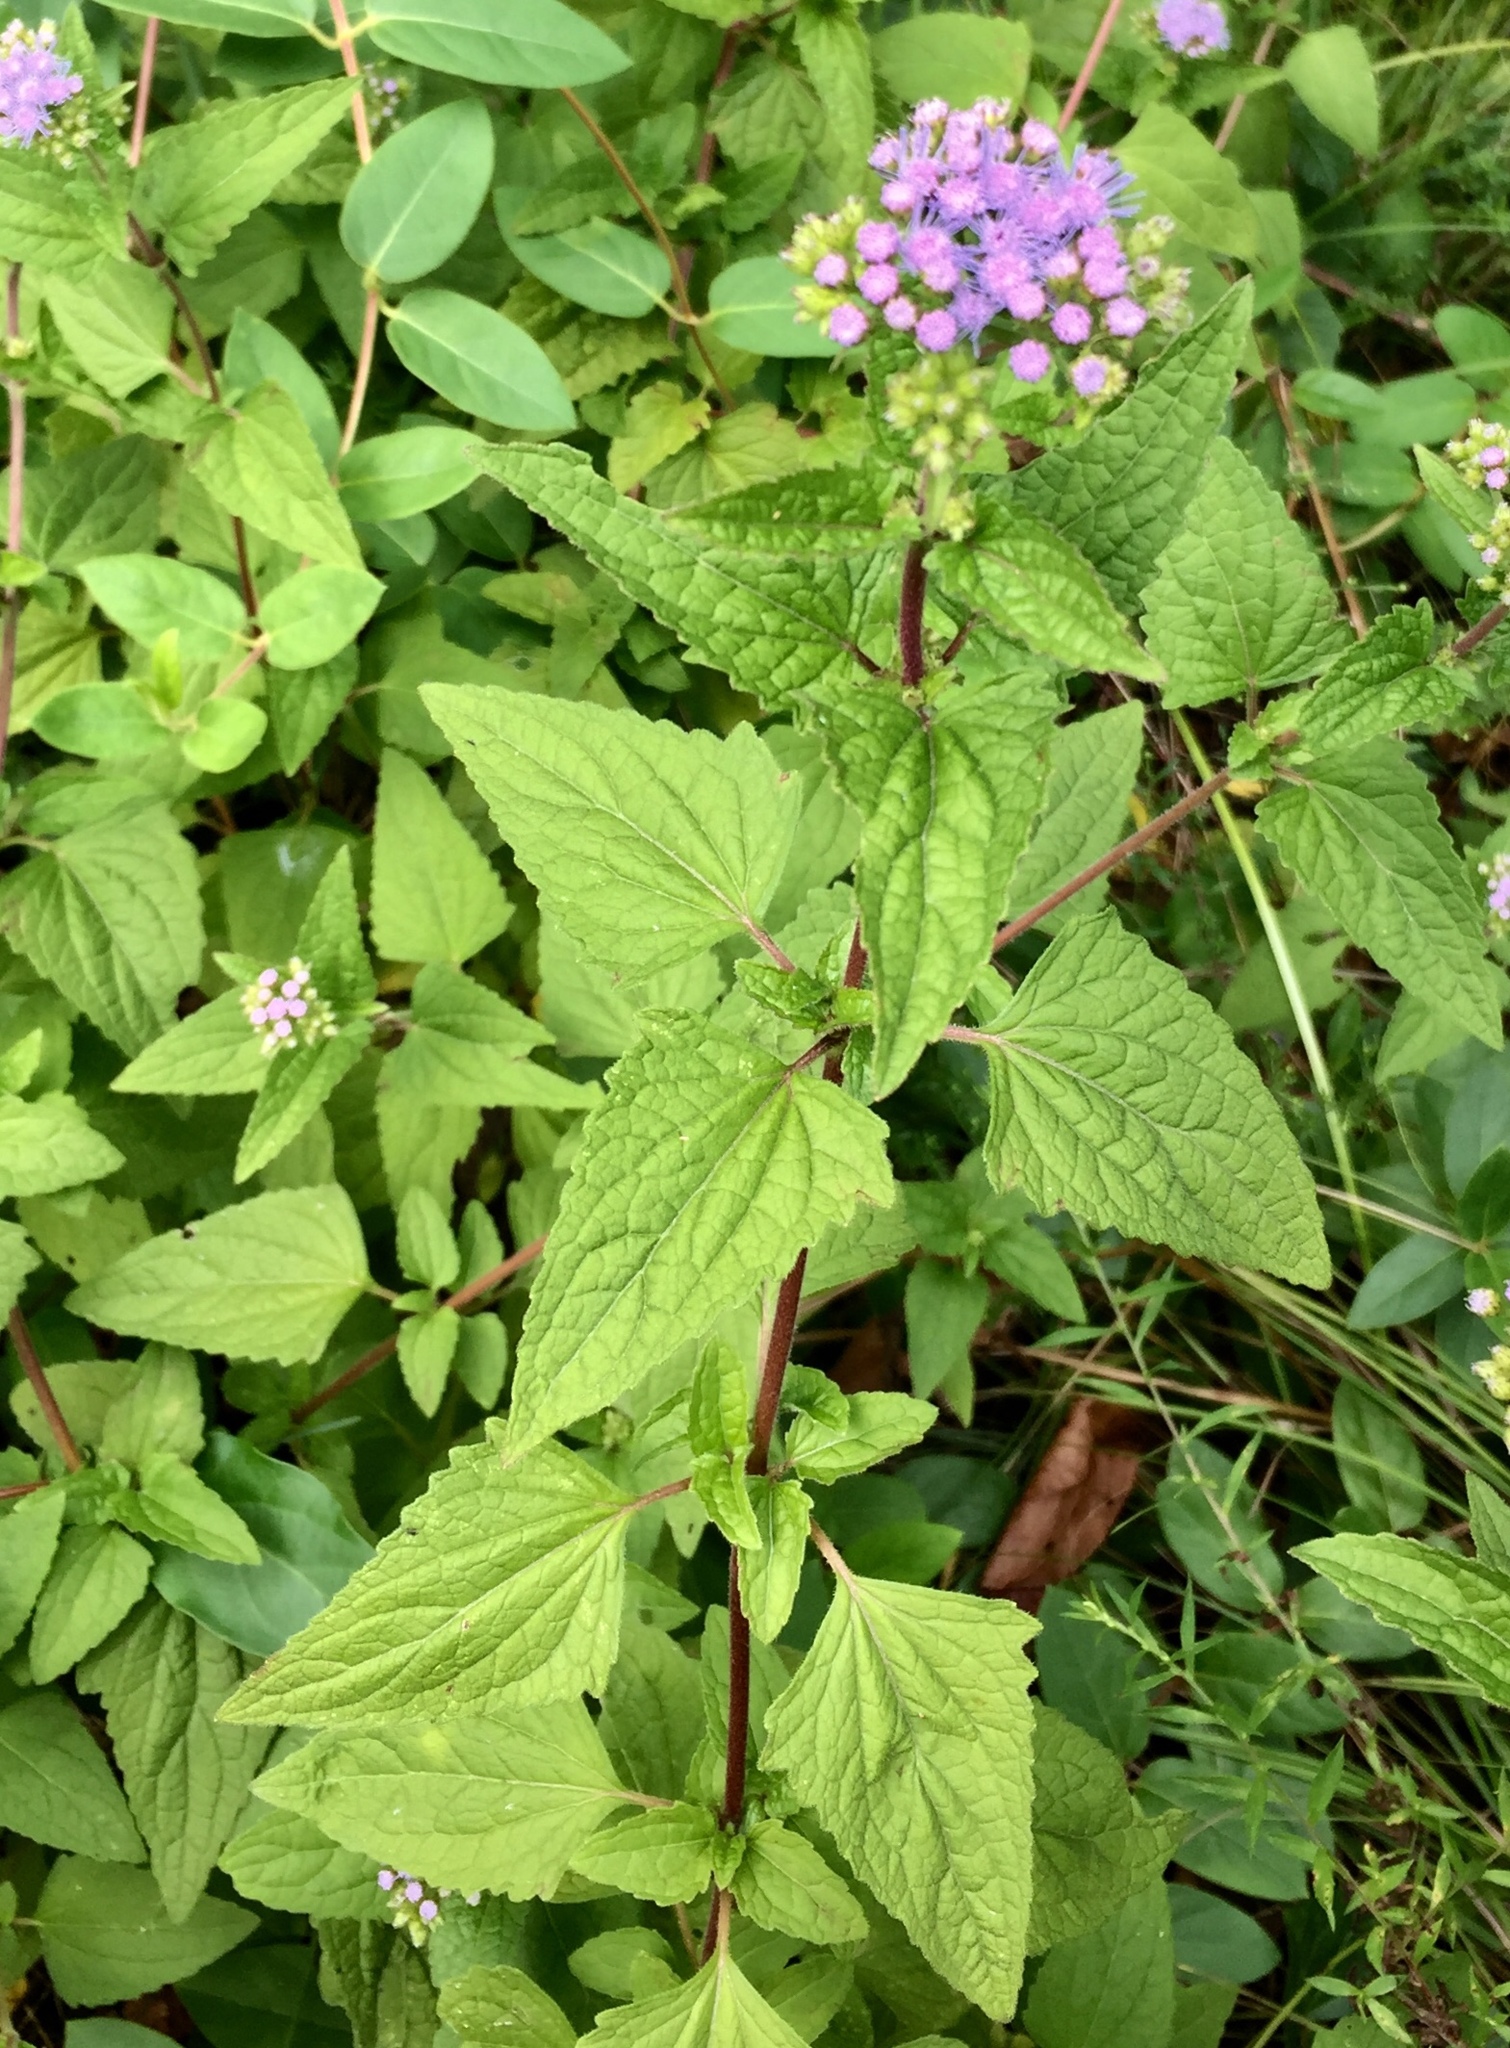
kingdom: Plantae
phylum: Tracheophyta
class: Magnoliopsida
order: Asterales
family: Asteraceae
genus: Conoclinium
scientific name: Conoclinium coelestinum
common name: Blue mistflower
